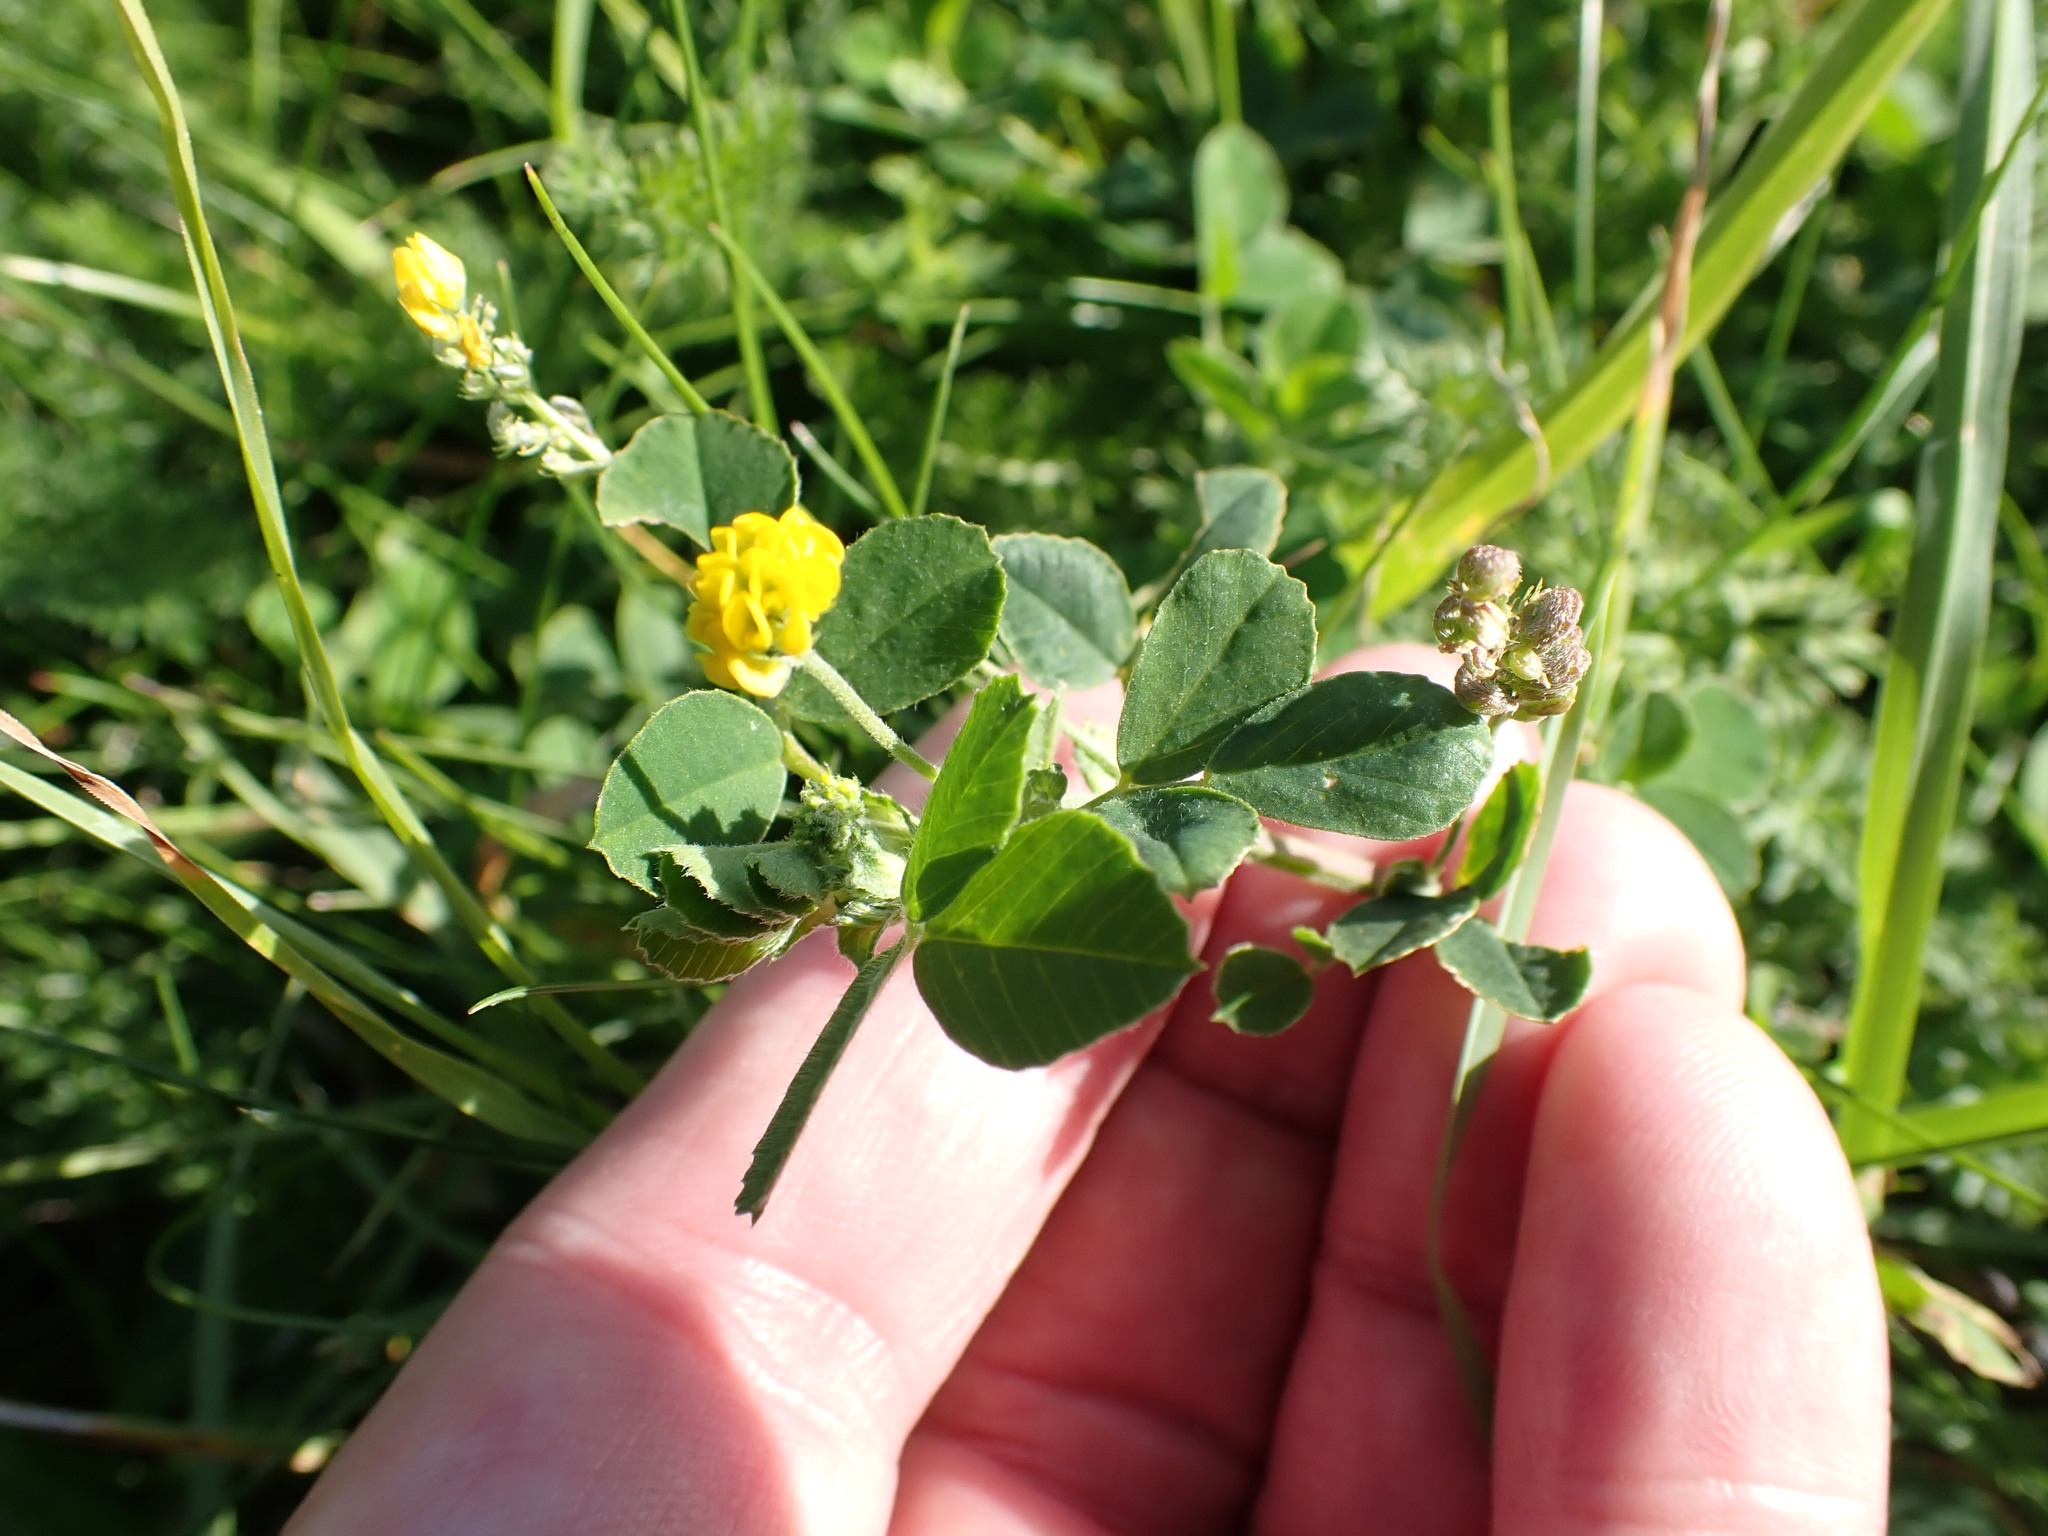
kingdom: Plantae
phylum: Tracheophyta
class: Magnoliopsida
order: Fabales
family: Fabaceae
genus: Medicago
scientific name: Medicago lupulina
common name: Black medick
